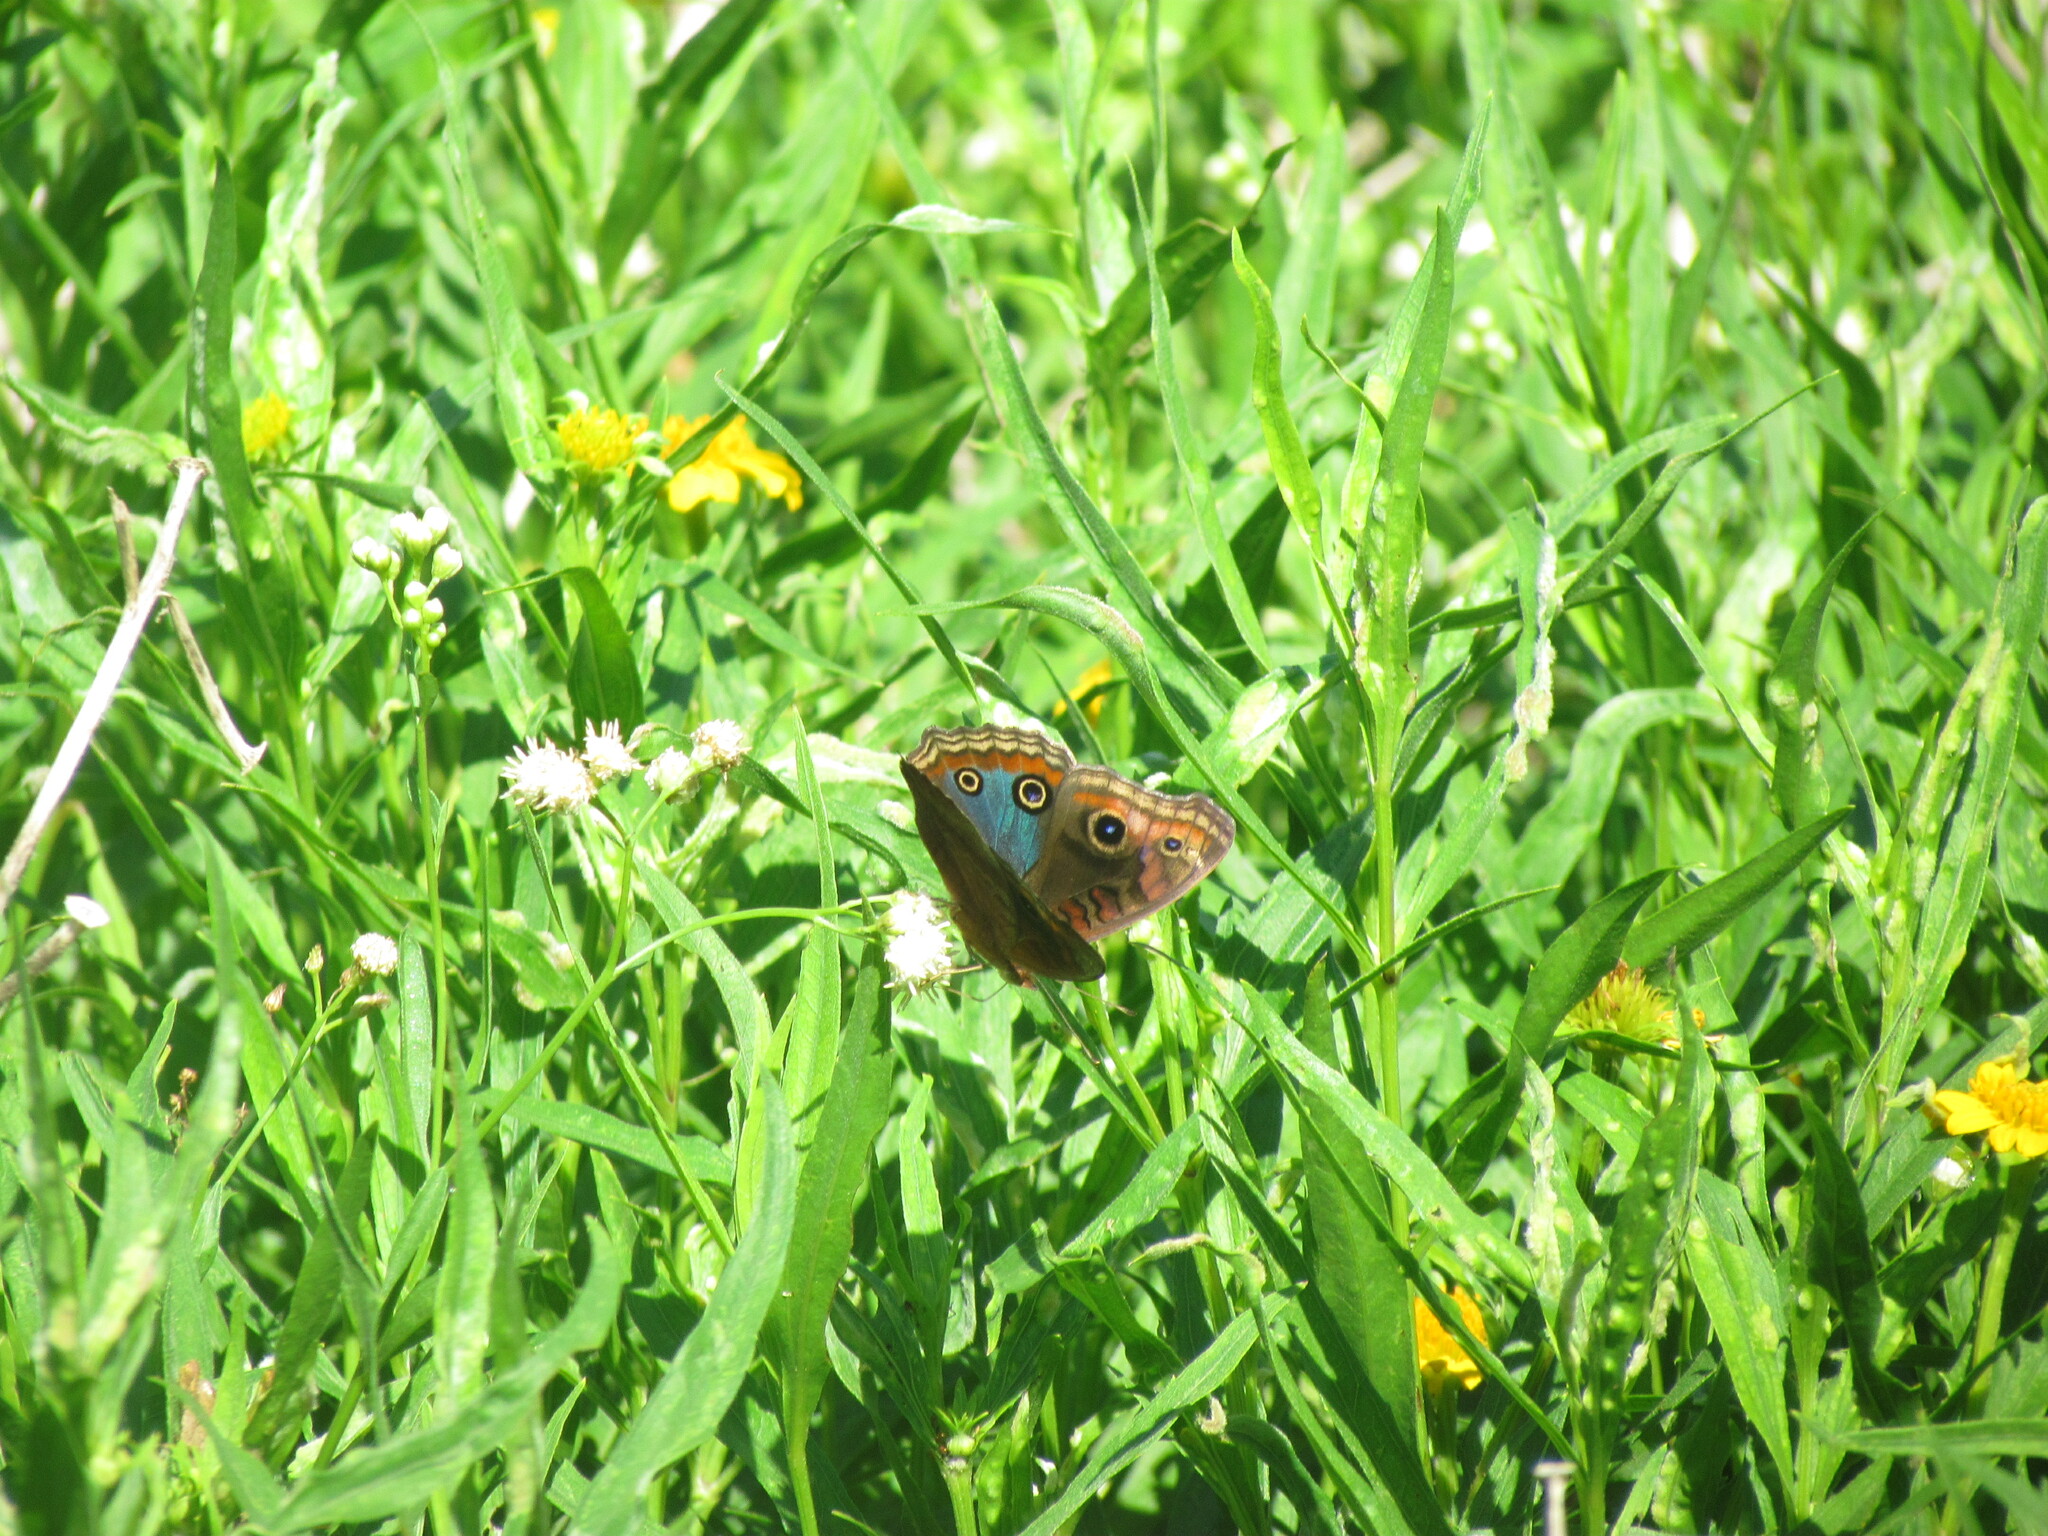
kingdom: Animalia
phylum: Arthropoda
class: Insecta
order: Lepidoptera
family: Nymphalidae
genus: Junonia
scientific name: Junonia lavinia
